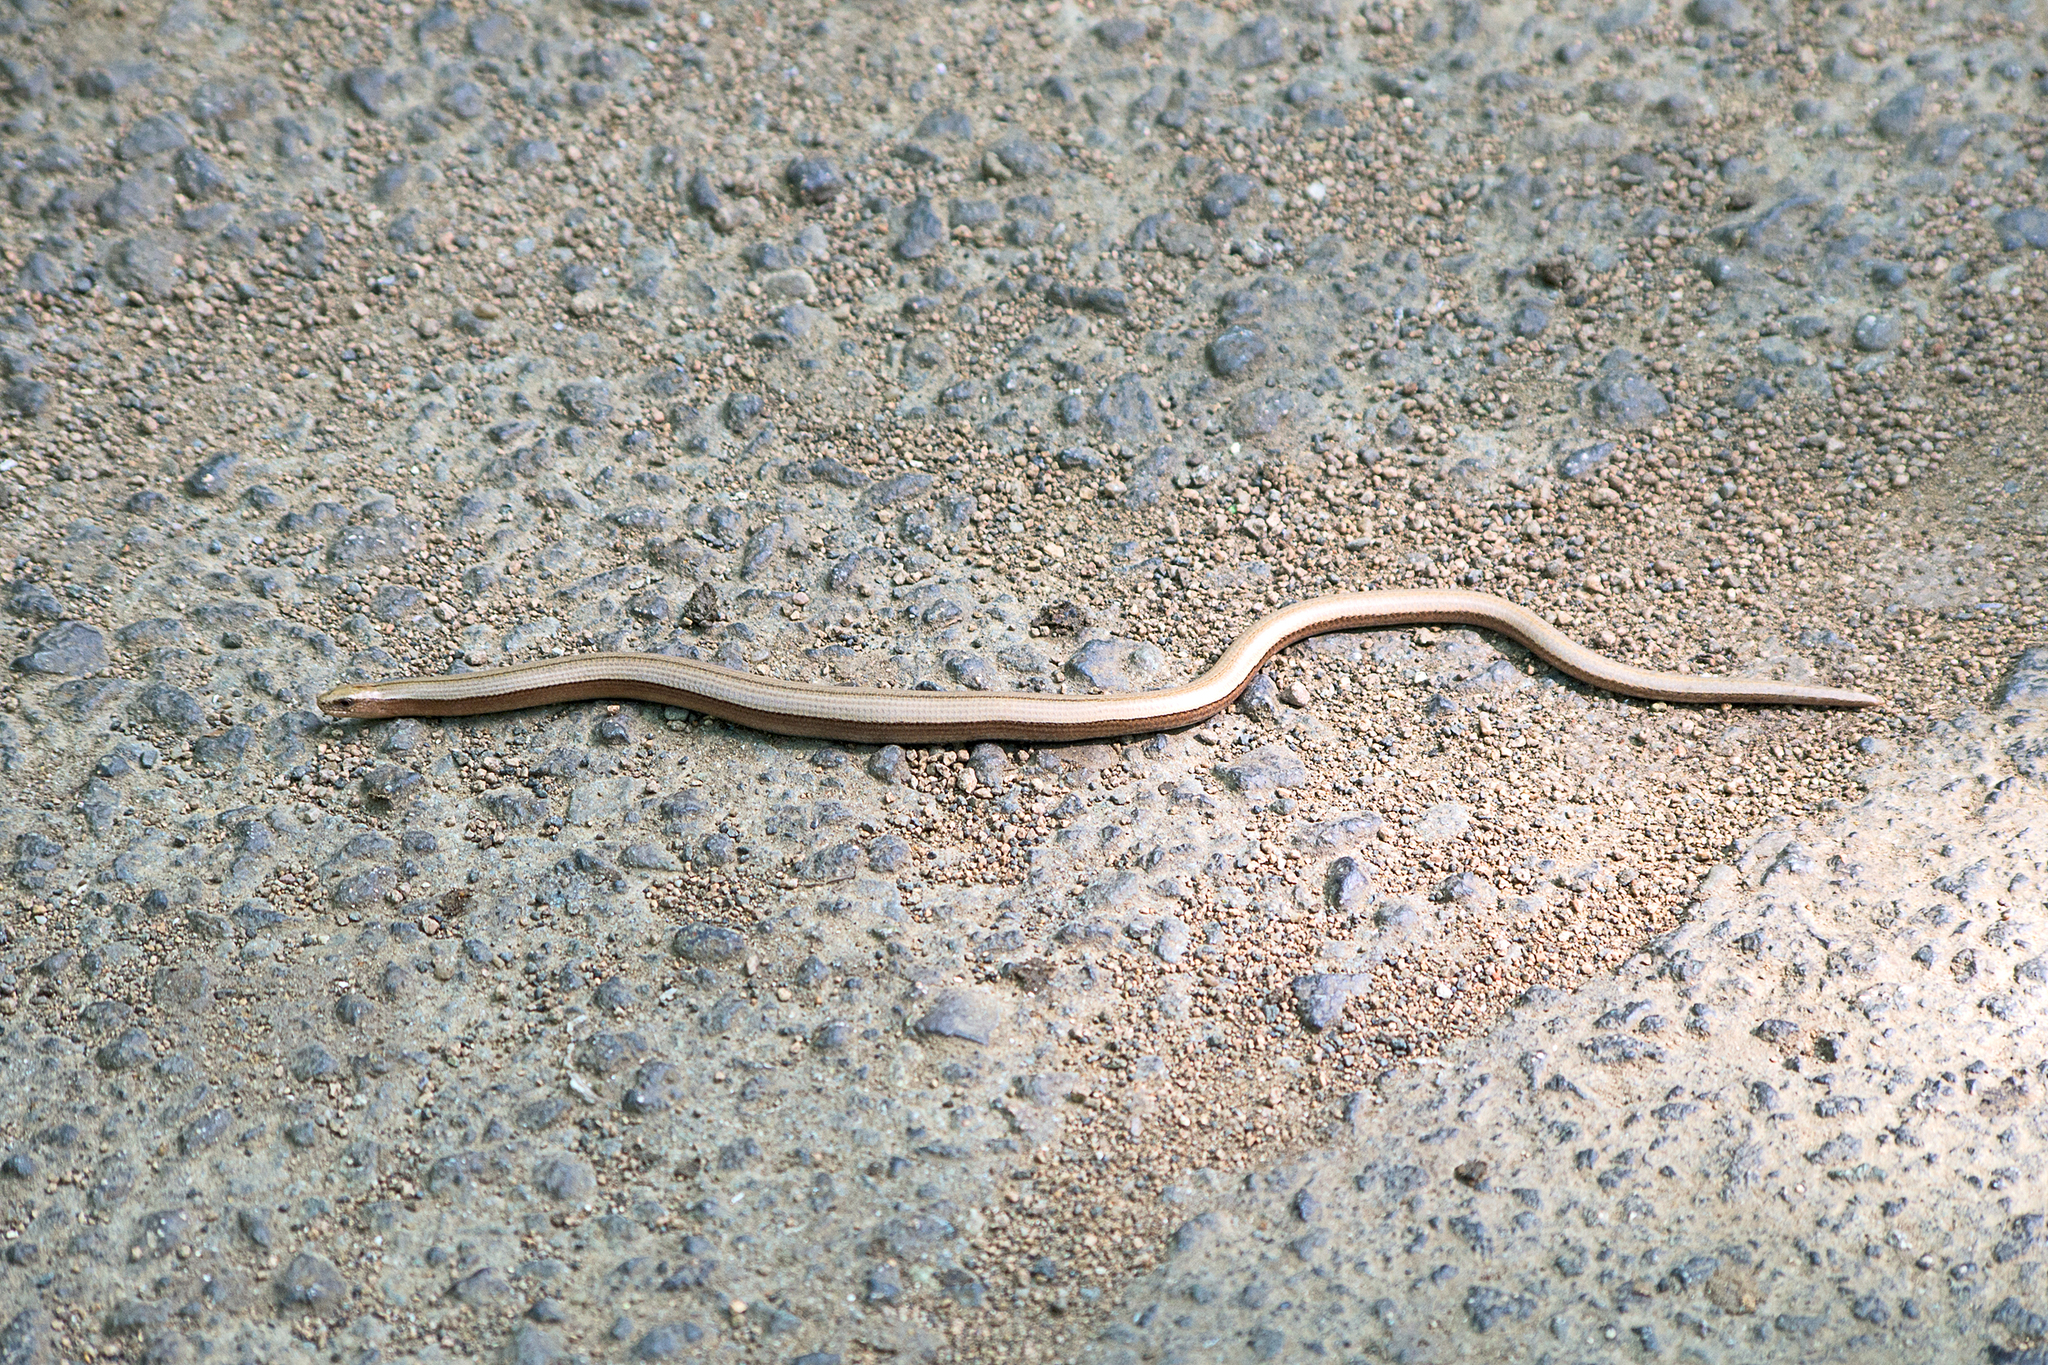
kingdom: Animalia
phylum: Chordata
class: Squamata
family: Anguidae
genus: Anguis
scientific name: Anguis colchica
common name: Slow worm
